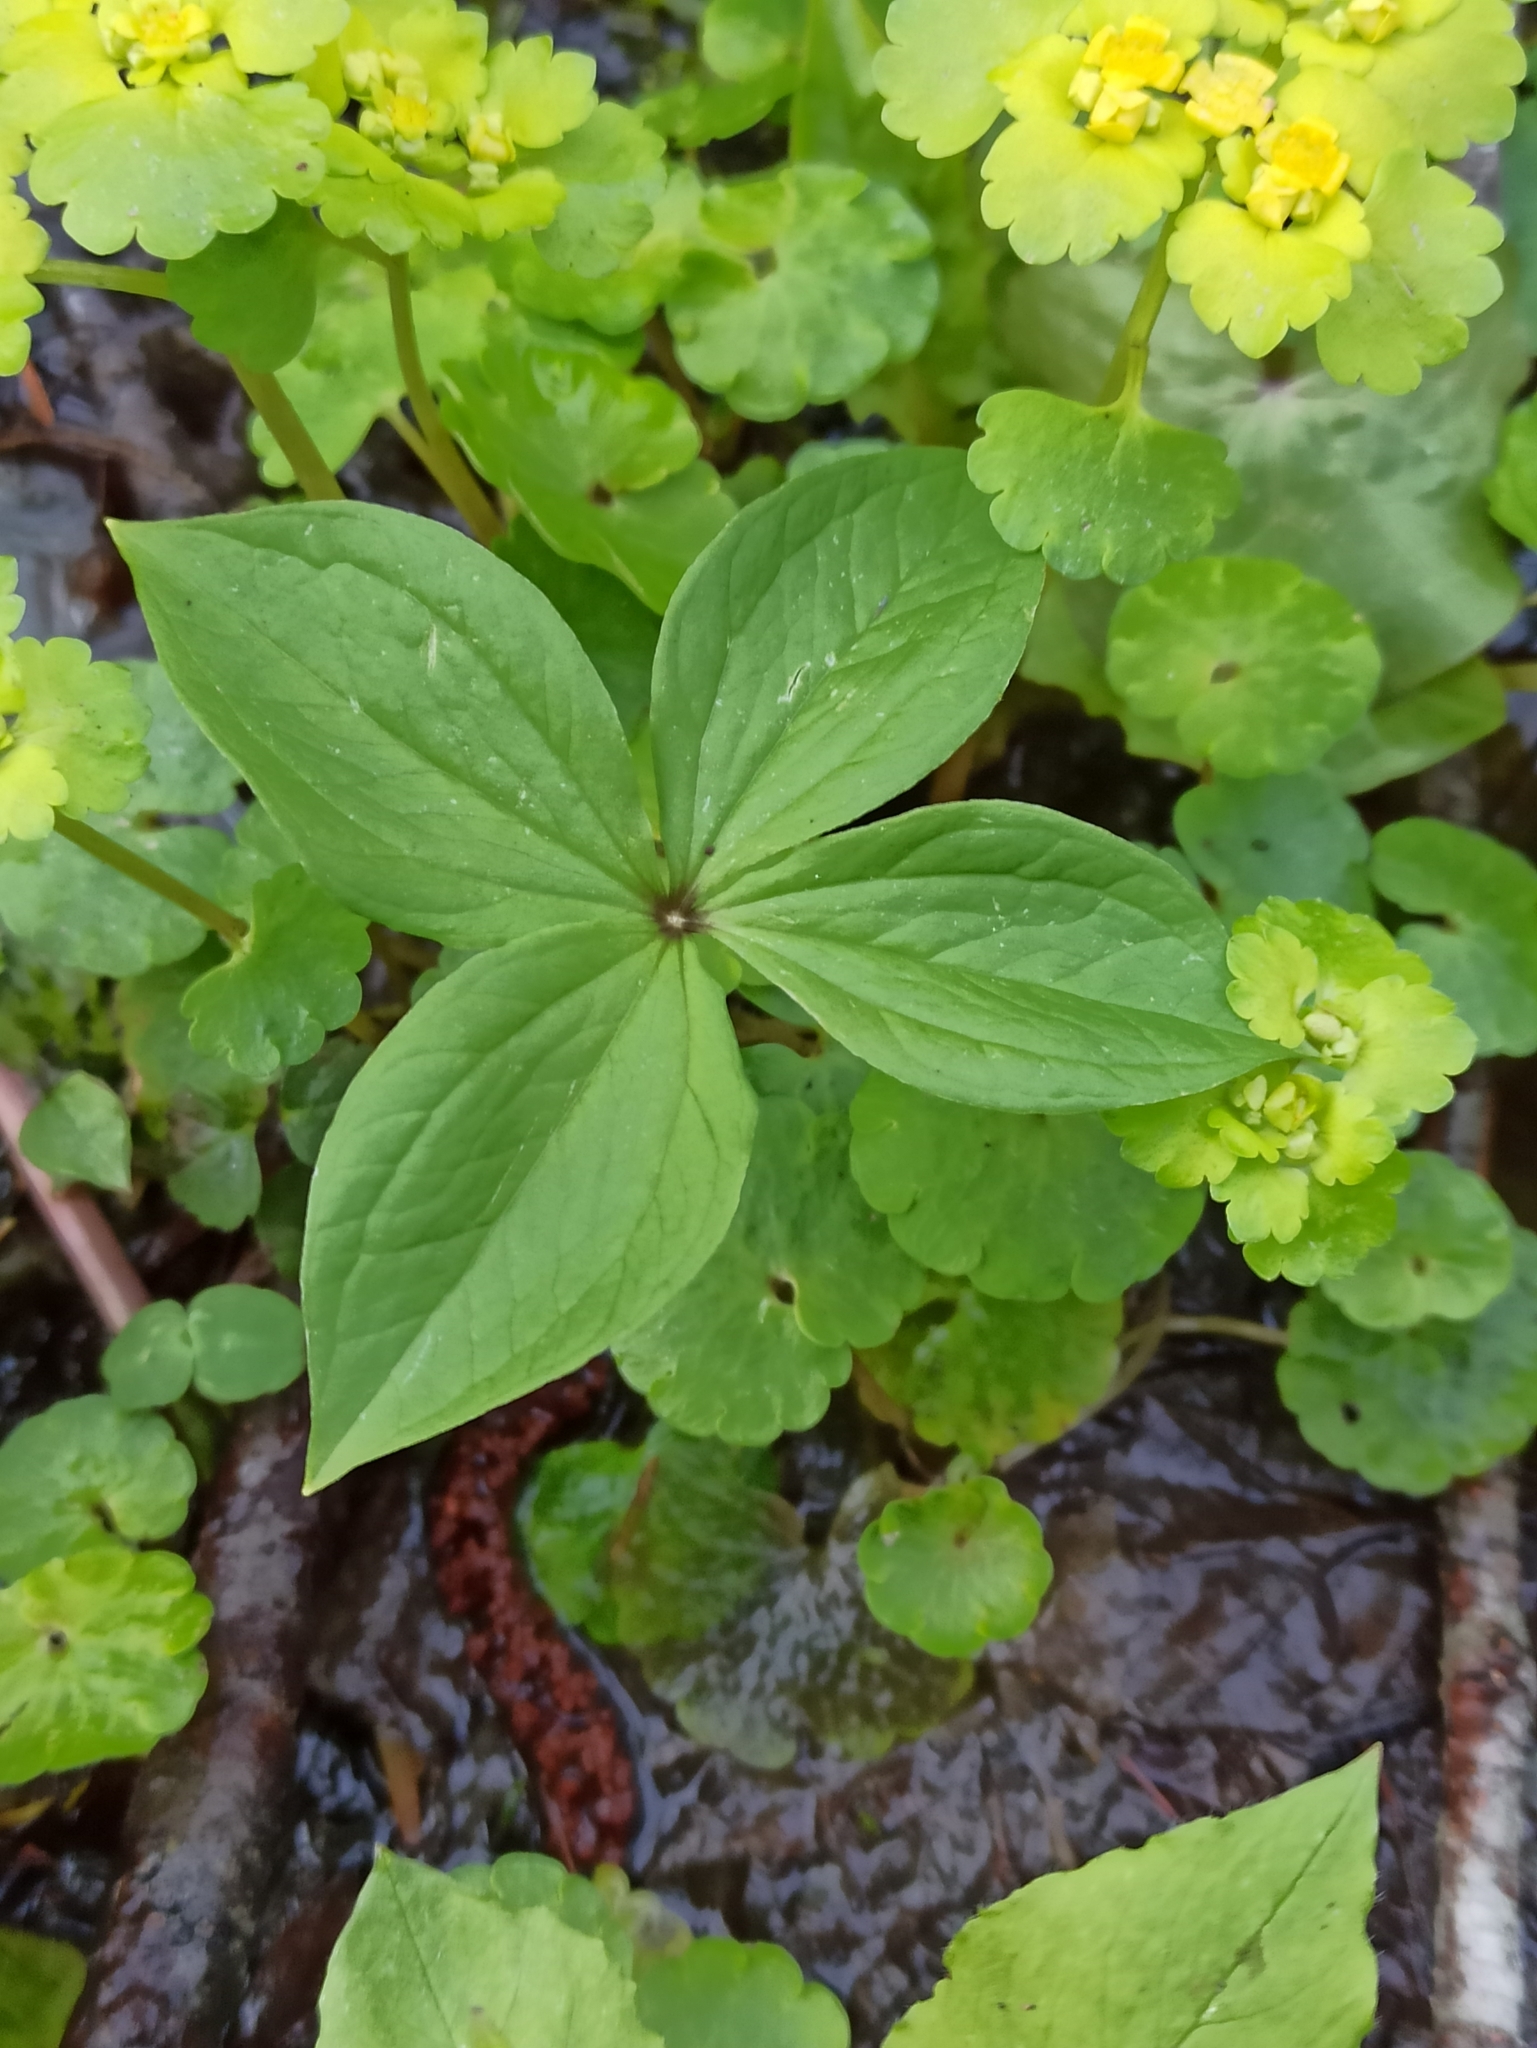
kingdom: Plantae
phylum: Tracheophyta
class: Liliopsida
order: Liliales
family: Melanthiaceae
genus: Paris
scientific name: Paris quadrifolia
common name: Herb-paris
